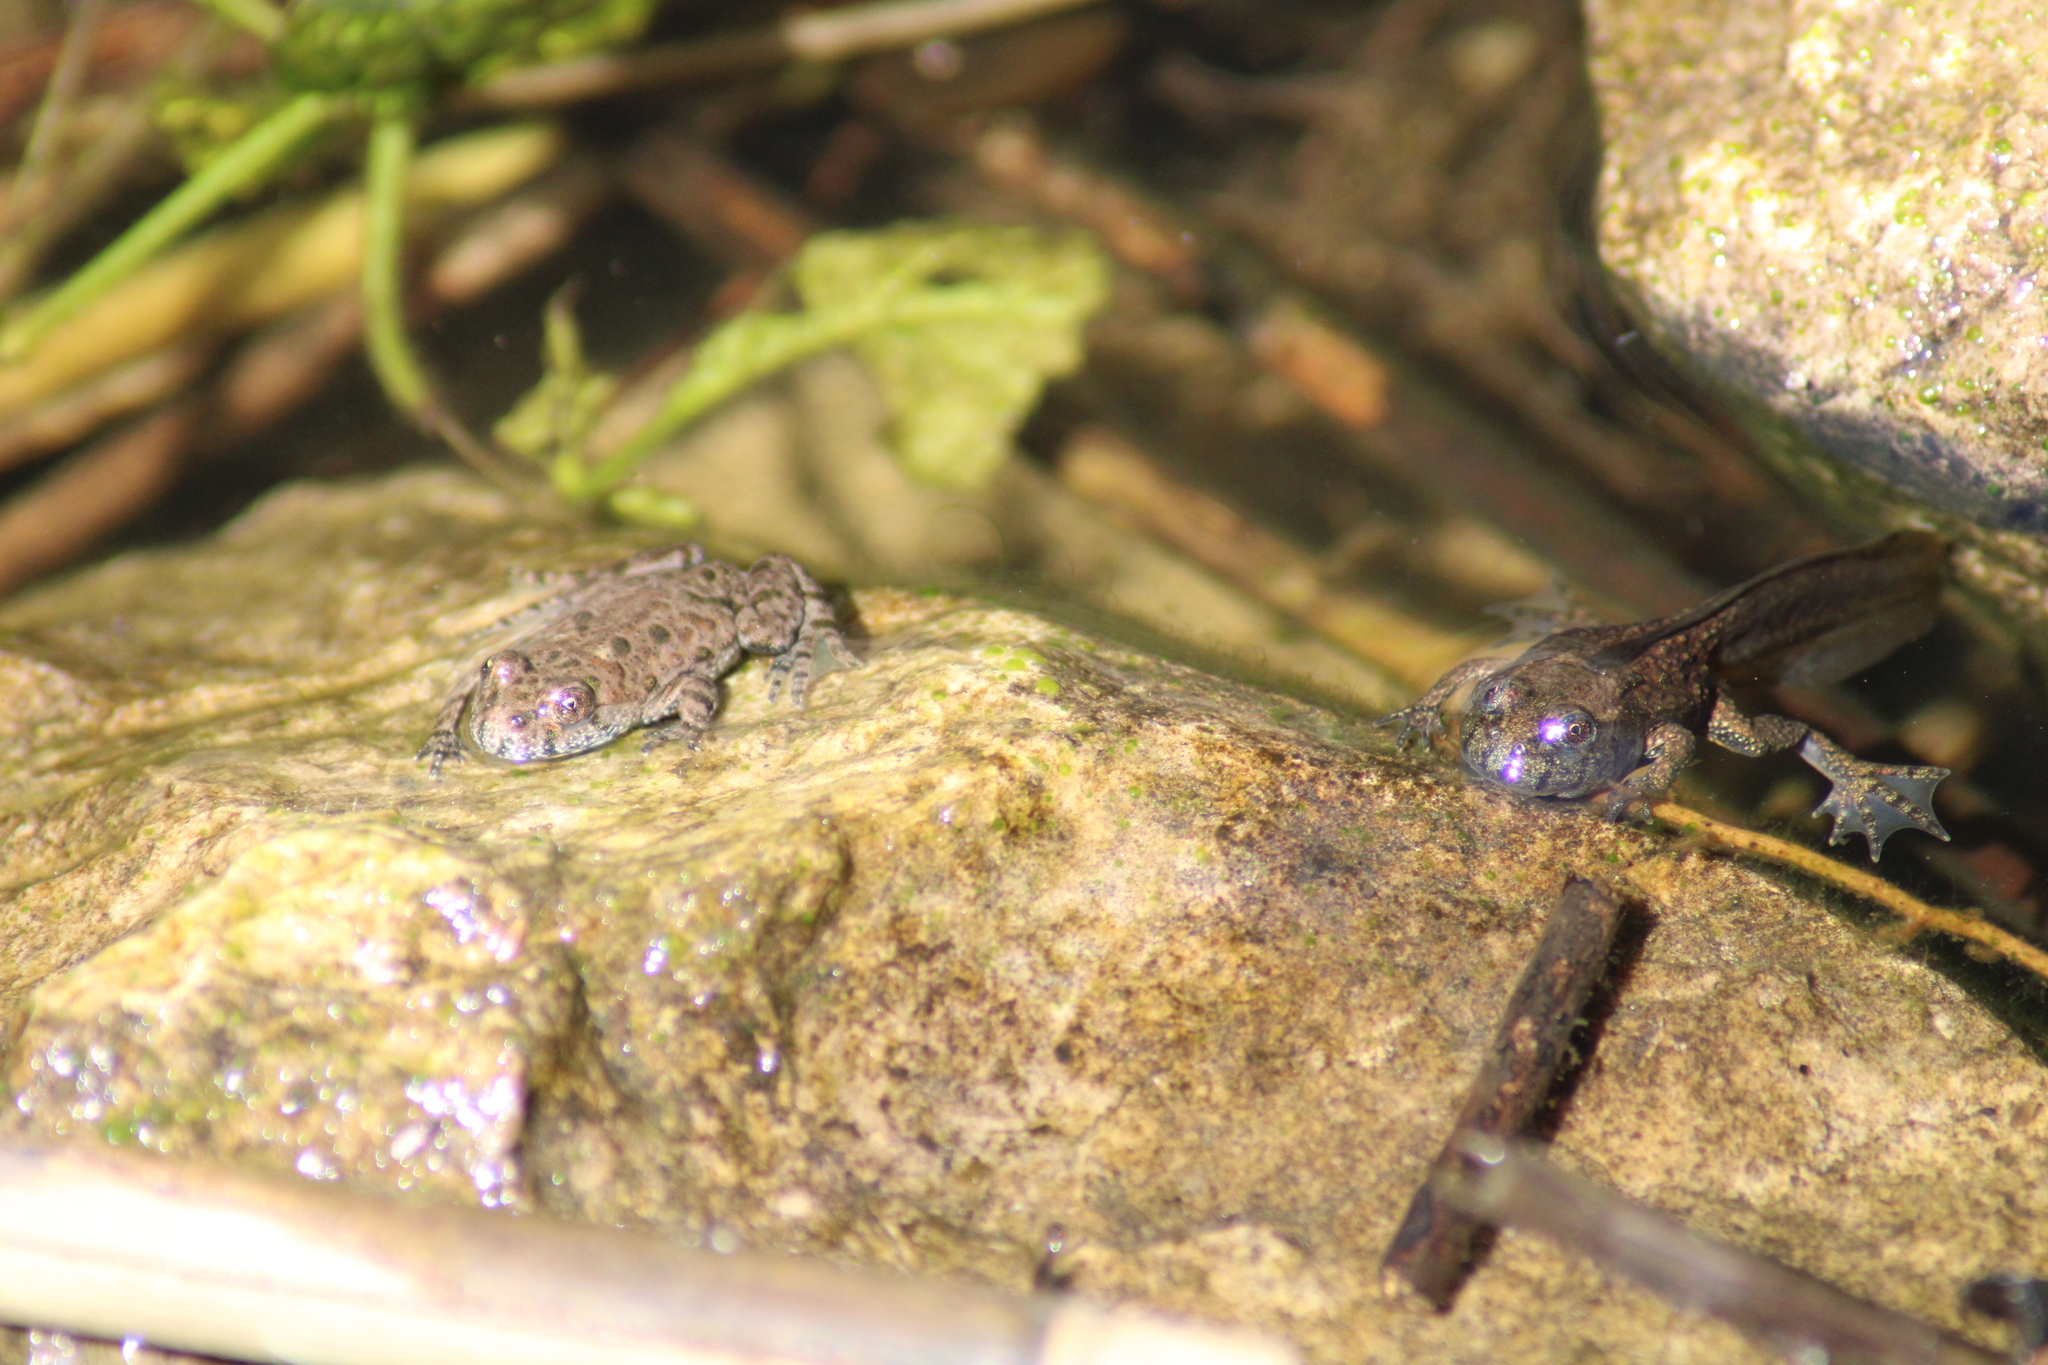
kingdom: Animalia
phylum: Chordata
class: Amphibia
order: Anura
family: Bombinatoridae
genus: Bombina
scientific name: Bombina bombina
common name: Fire-bellied toad
